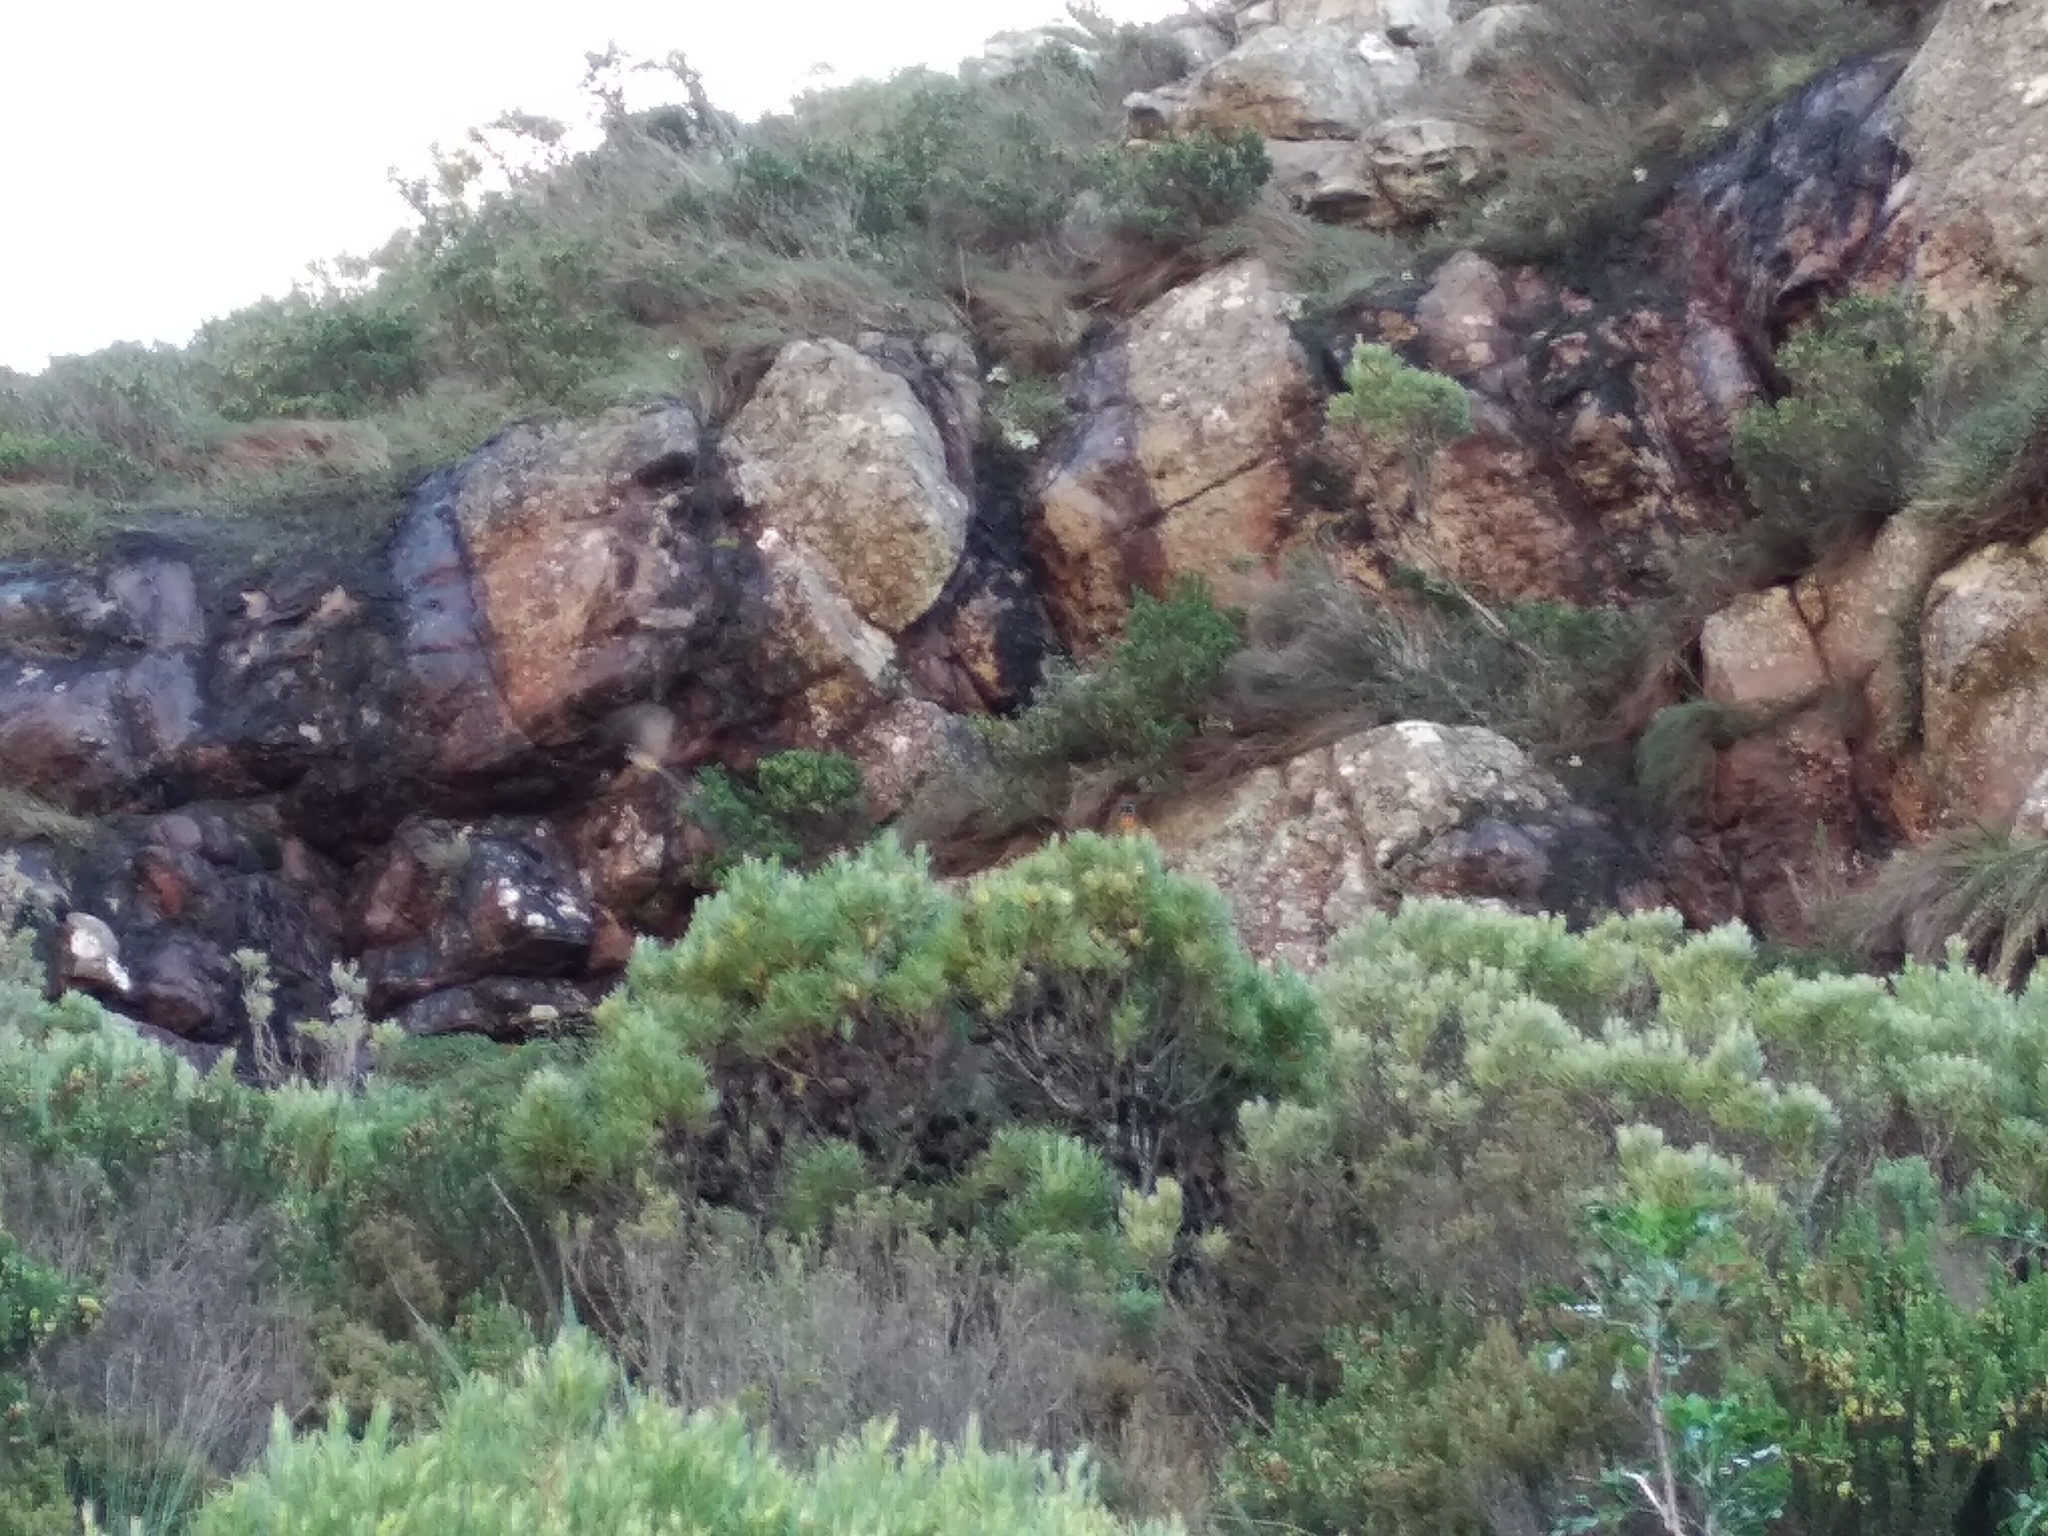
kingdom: Animalia
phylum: Chordata
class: Aves
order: Passeriformes
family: Promeropidae
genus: Promerops
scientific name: Promerops cafer
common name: Cape sugarbird
